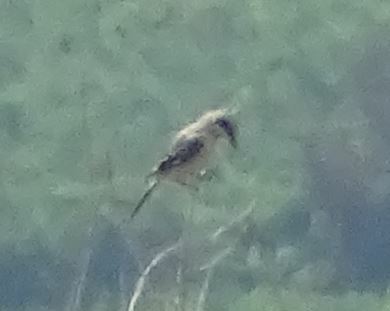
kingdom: Animalia
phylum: Chordata
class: Aves
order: Passeriformes
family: Laniidae
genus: Lanius
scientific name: Lanius meridionalis
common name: Iberian grey shrike
